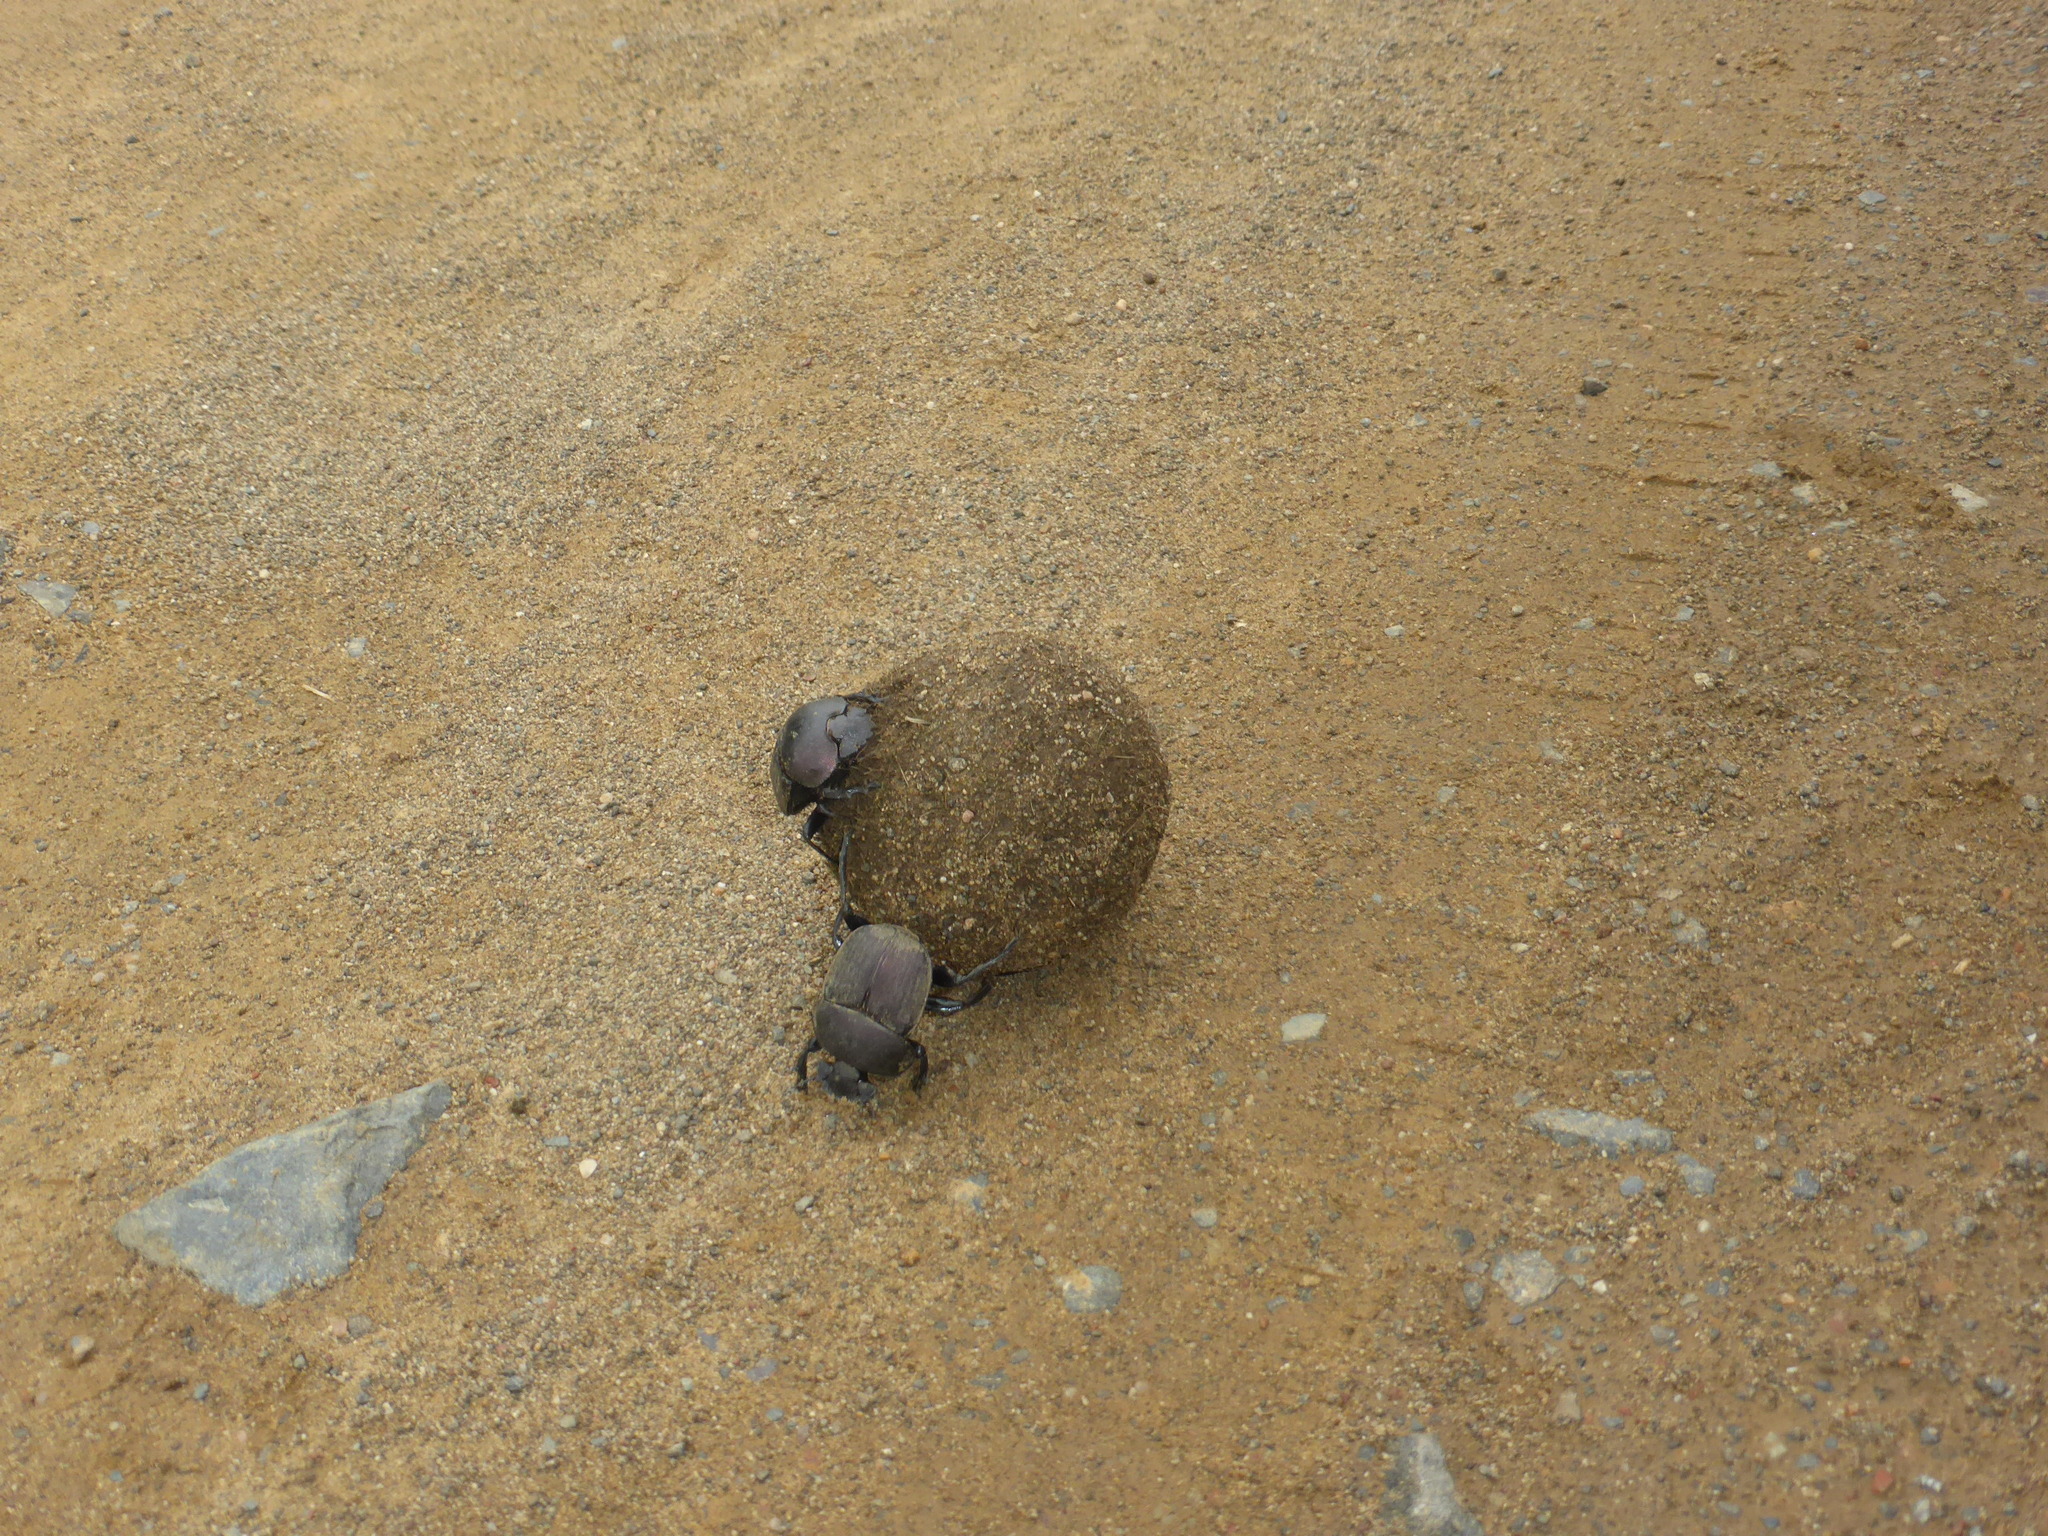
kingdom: Animalia
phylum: Arthropoda
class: Insecta
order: Coleoptera
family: Scarabaeidae
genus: Kheper
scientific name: Kheper nigroaeneus
